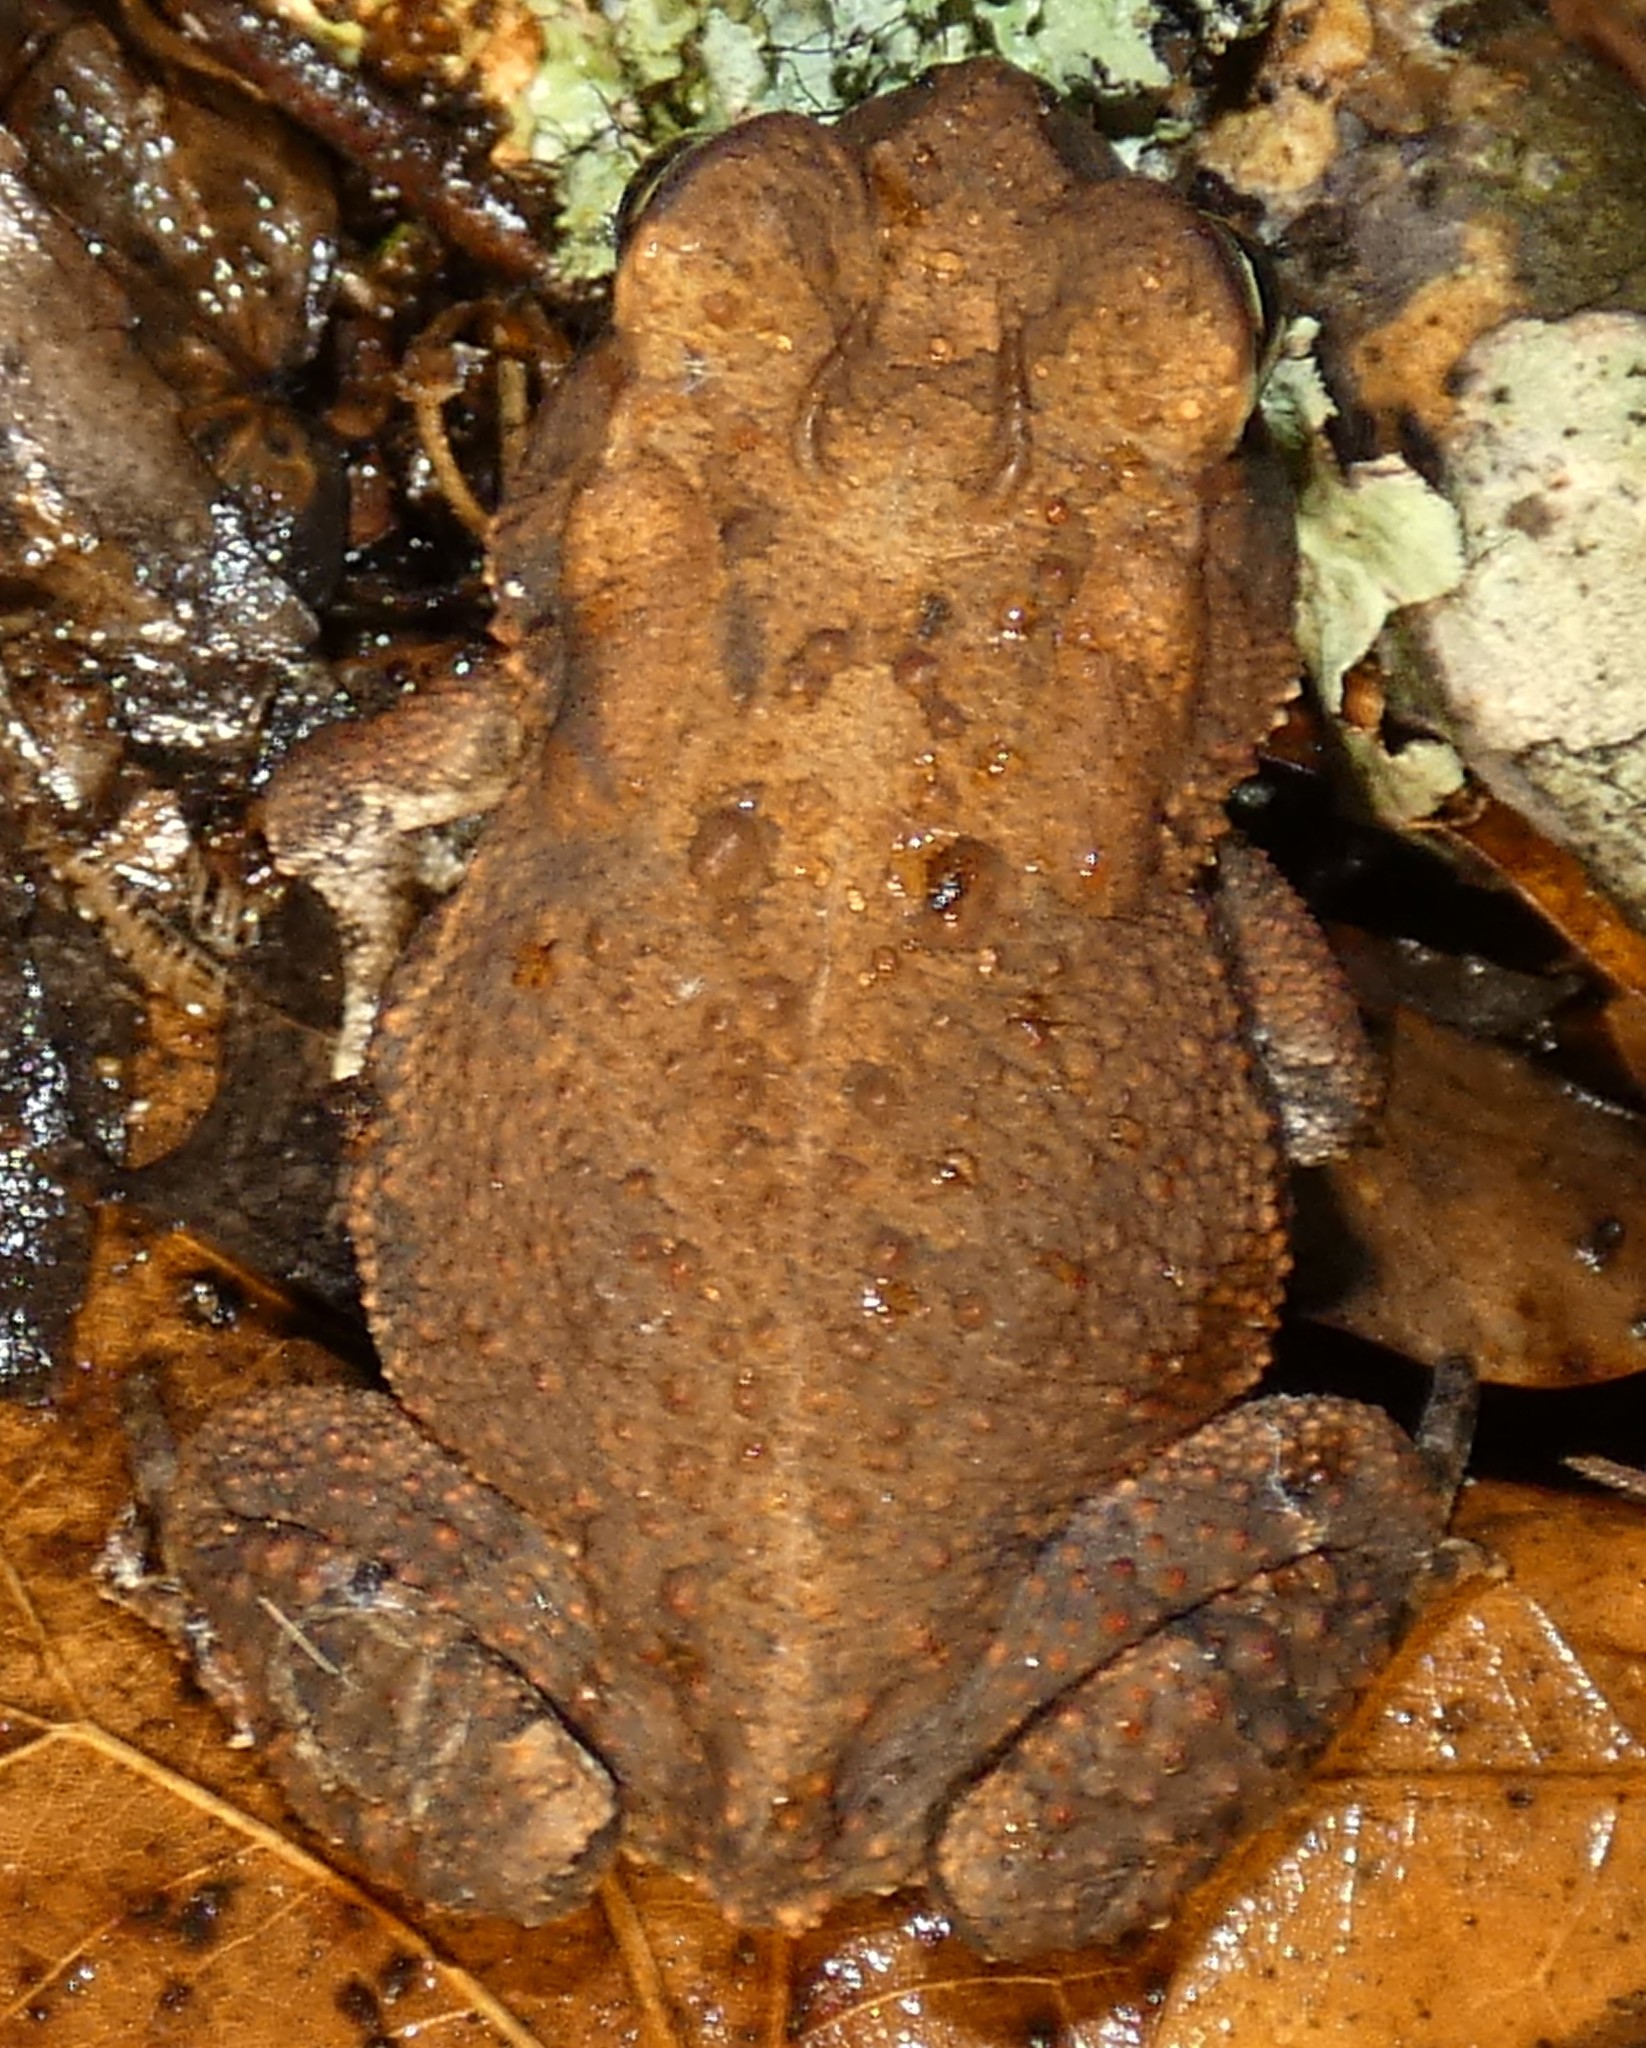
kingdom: Animalia
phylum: Chordata
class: Amphibia
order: Anura
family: Bufonidae
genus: Anaxyrus
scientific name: Anaxyrus terrestris
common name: Southern toad
